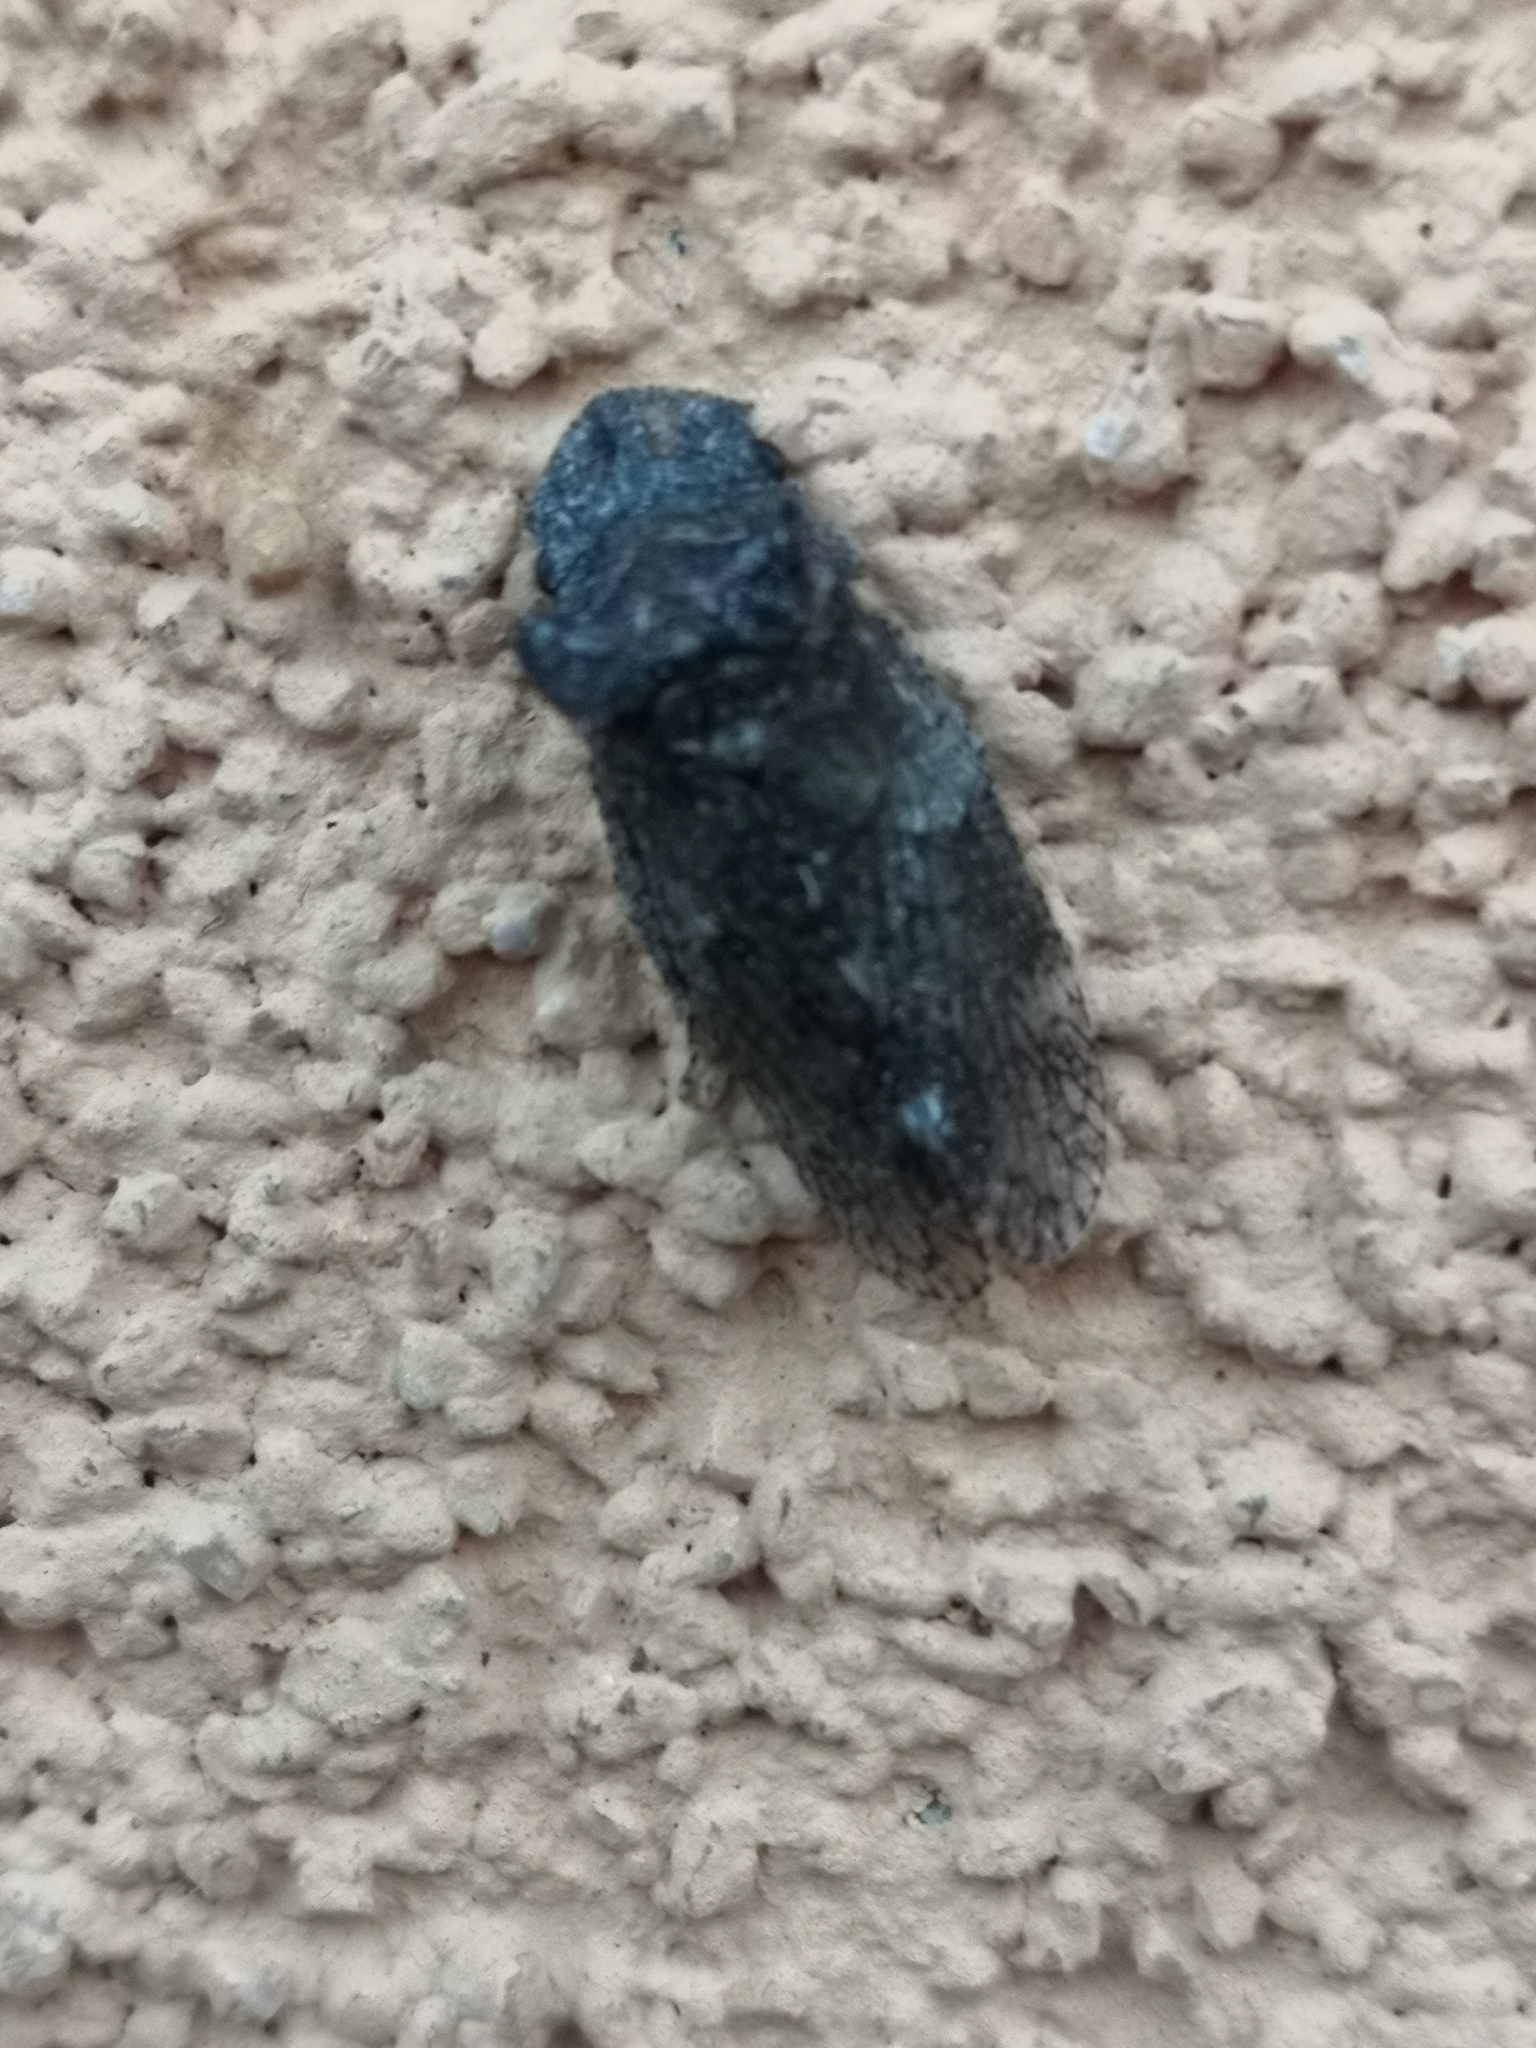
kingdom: Animalia
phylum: Arthropoda
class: Insecta
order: Hemiptera
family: Cicadellidae
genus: Ledra
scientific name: Ledra aurita
